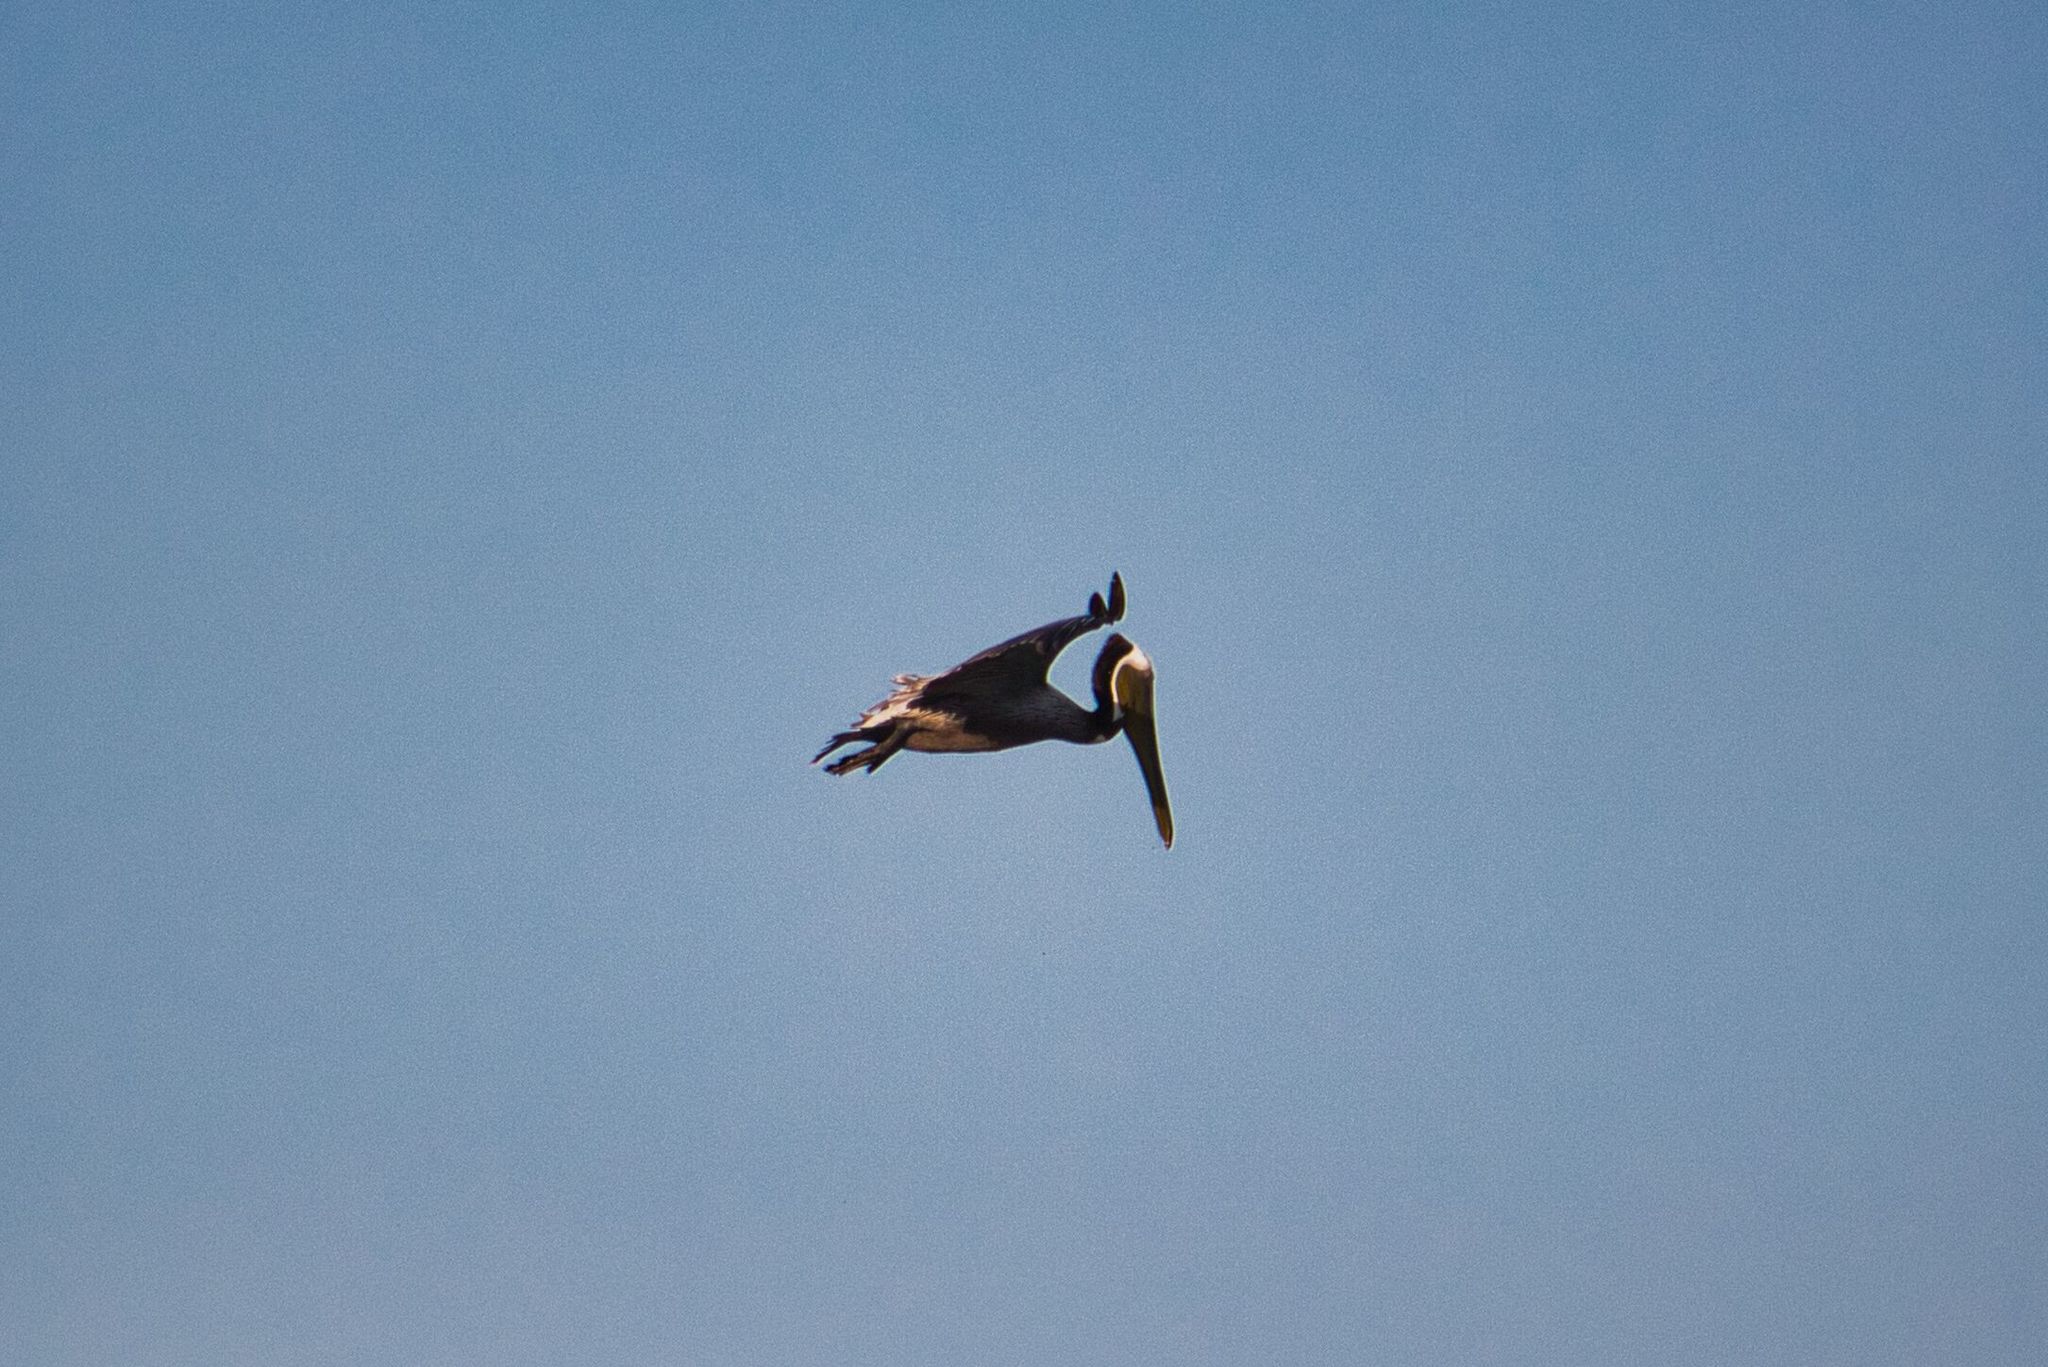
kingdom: Animalia
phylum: Chordata
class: Aves
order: Pelecaniformes
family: Pelecanidae
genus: Pelecanus
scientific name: Pelecanus occidentalis
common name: Brown pelican
